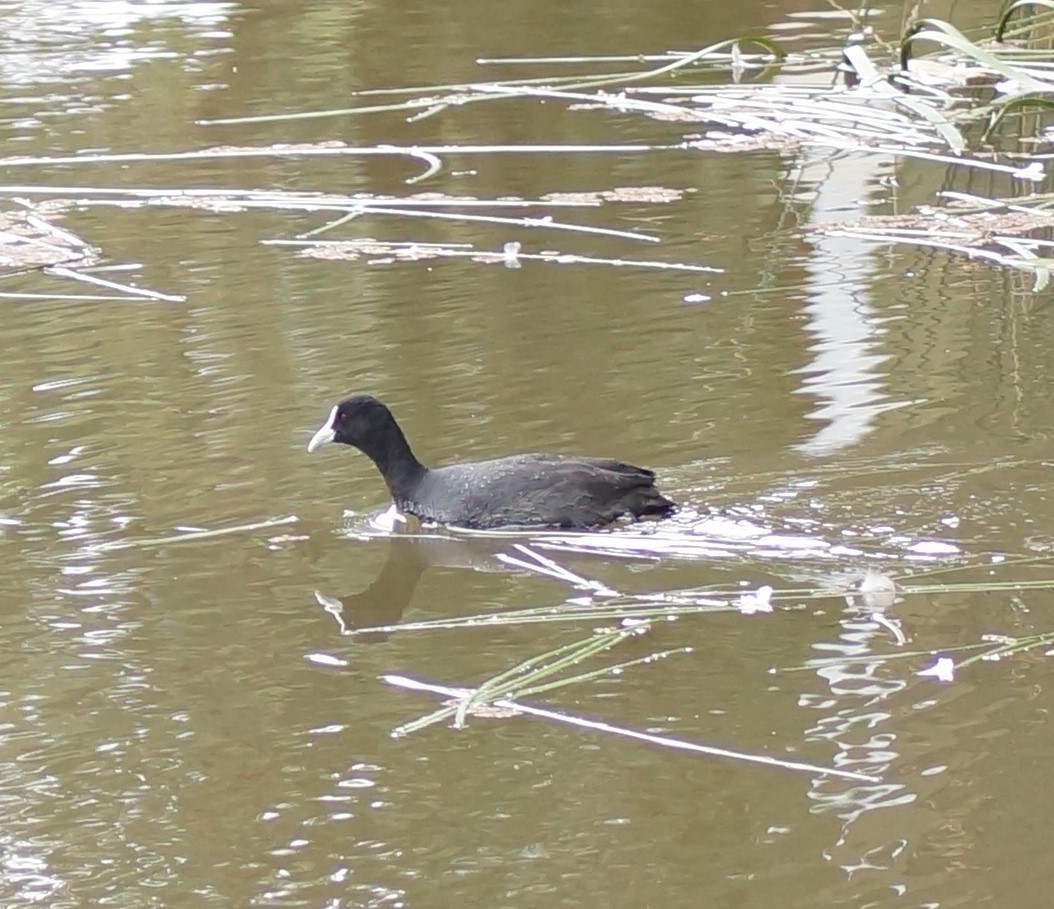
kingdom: Animalia
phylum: Chordata
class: Aves
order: Gruiformes
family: Rallidae
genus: Fulica
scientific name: Fulica atra
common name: Eurasian coot
